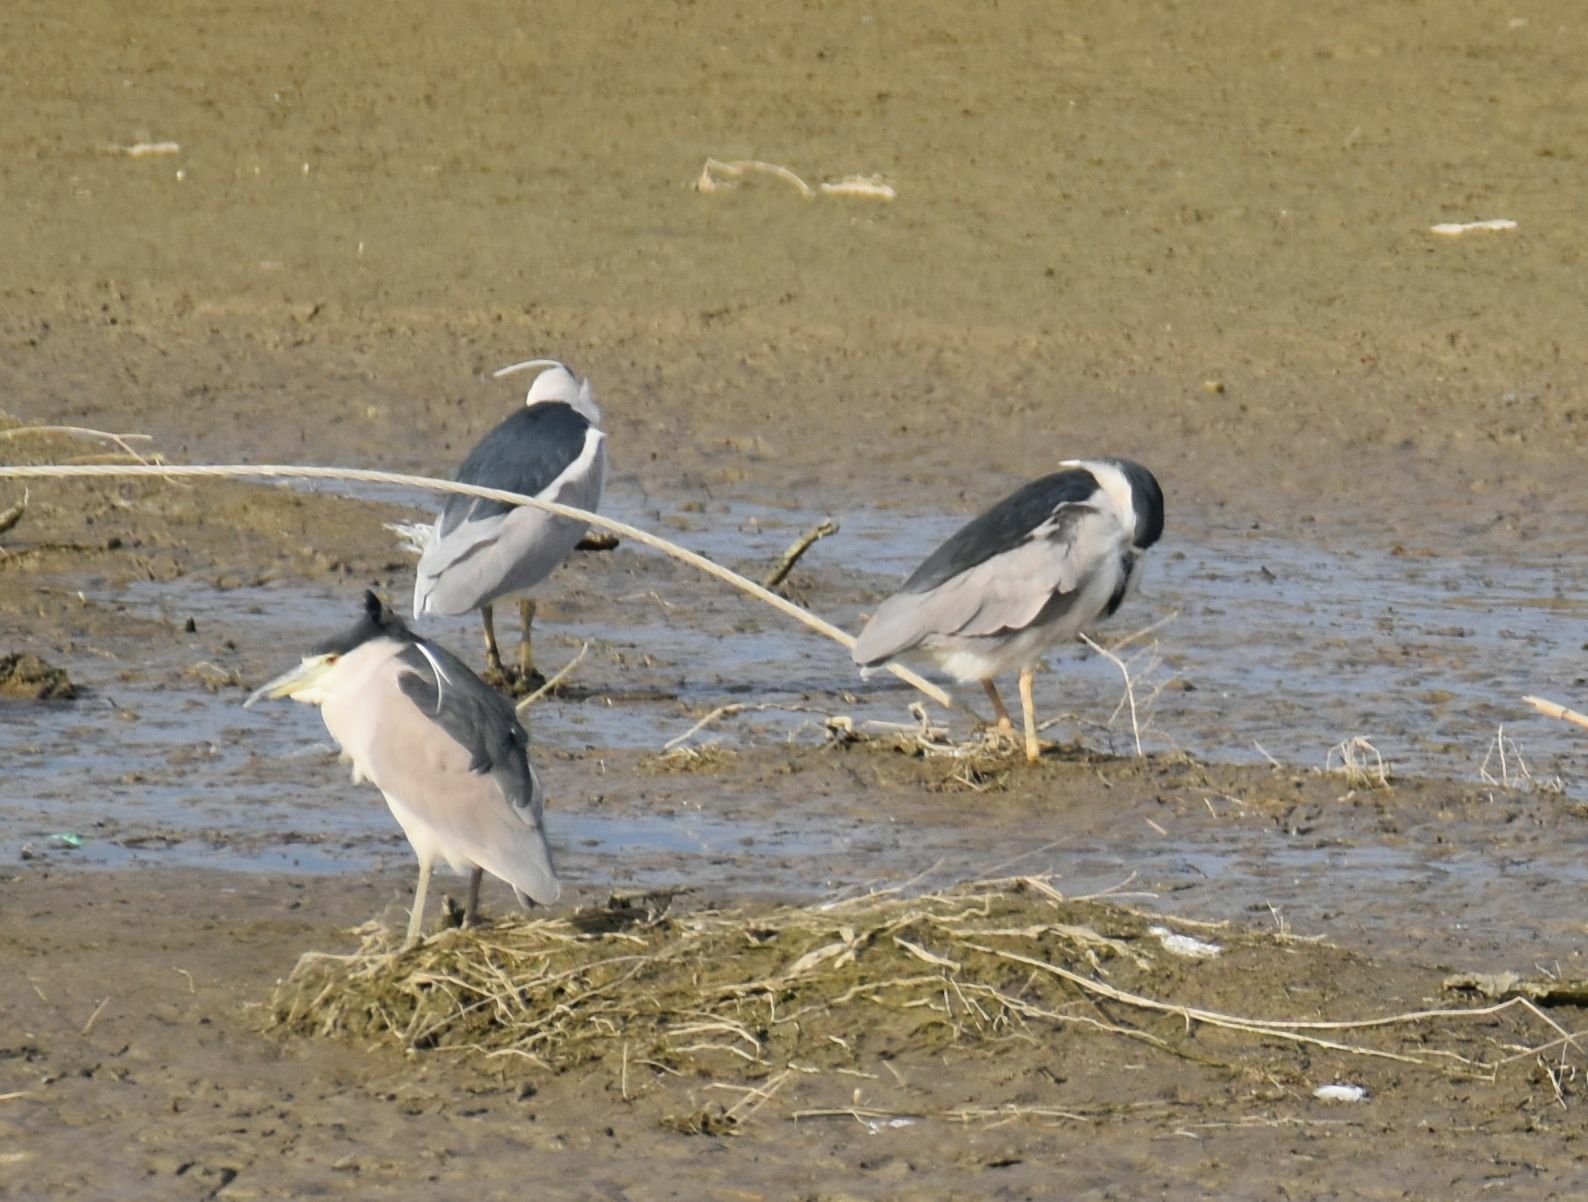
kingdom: Animalia
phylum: Chordata
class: Aves
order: Pelecaniformes
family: Ardeidae
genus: Nycticorax
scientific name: Nycticorax nycticorax
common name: Black-crowned night heron
